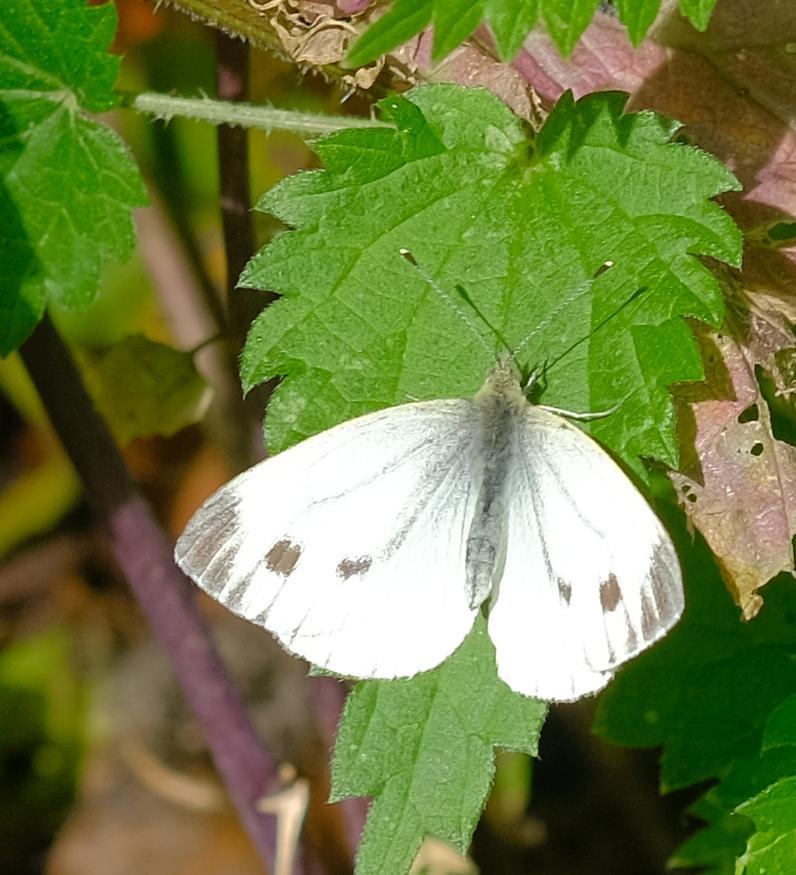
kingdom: Animalia
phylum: Arthropoda
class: Insecta
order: Lepidoptera
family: Pieridae
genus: Pieris
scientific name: Pieris napi
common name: Green-veined white
